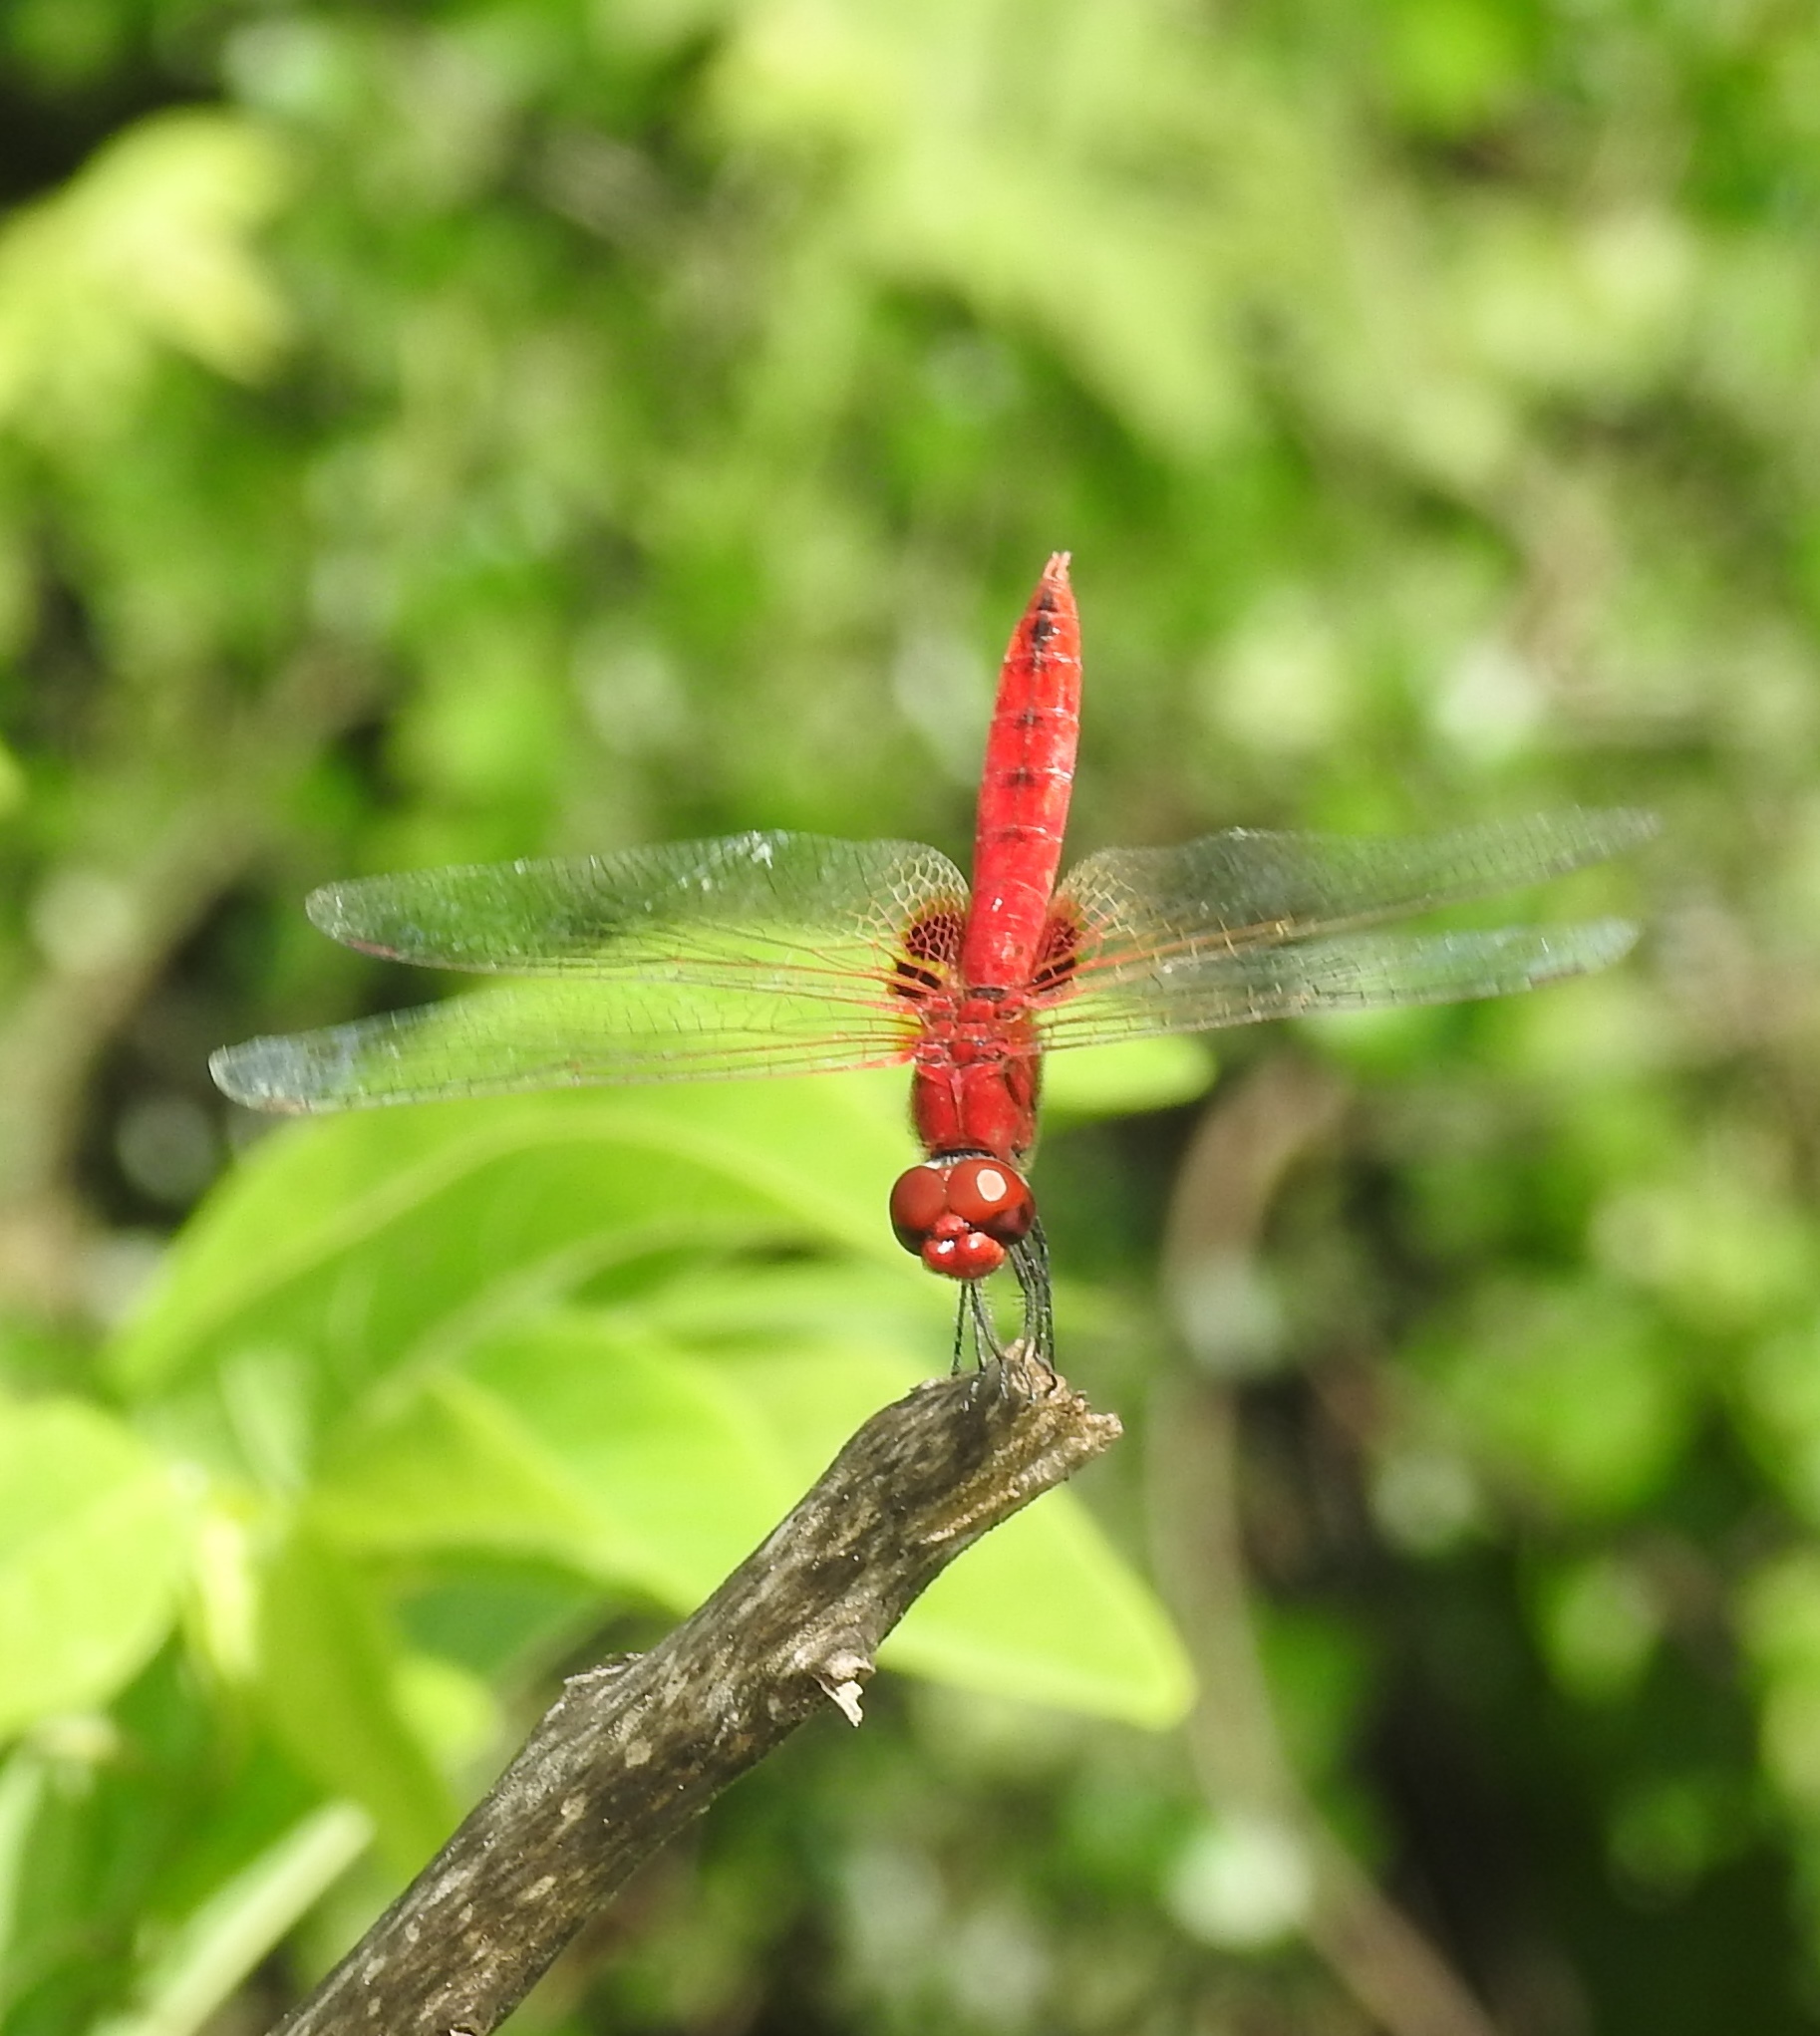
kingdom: Animalia
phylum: Arthropoda
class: Insecta
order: Odonata
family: Libellulidae
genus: Urothemis
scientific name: Urothemis signata
